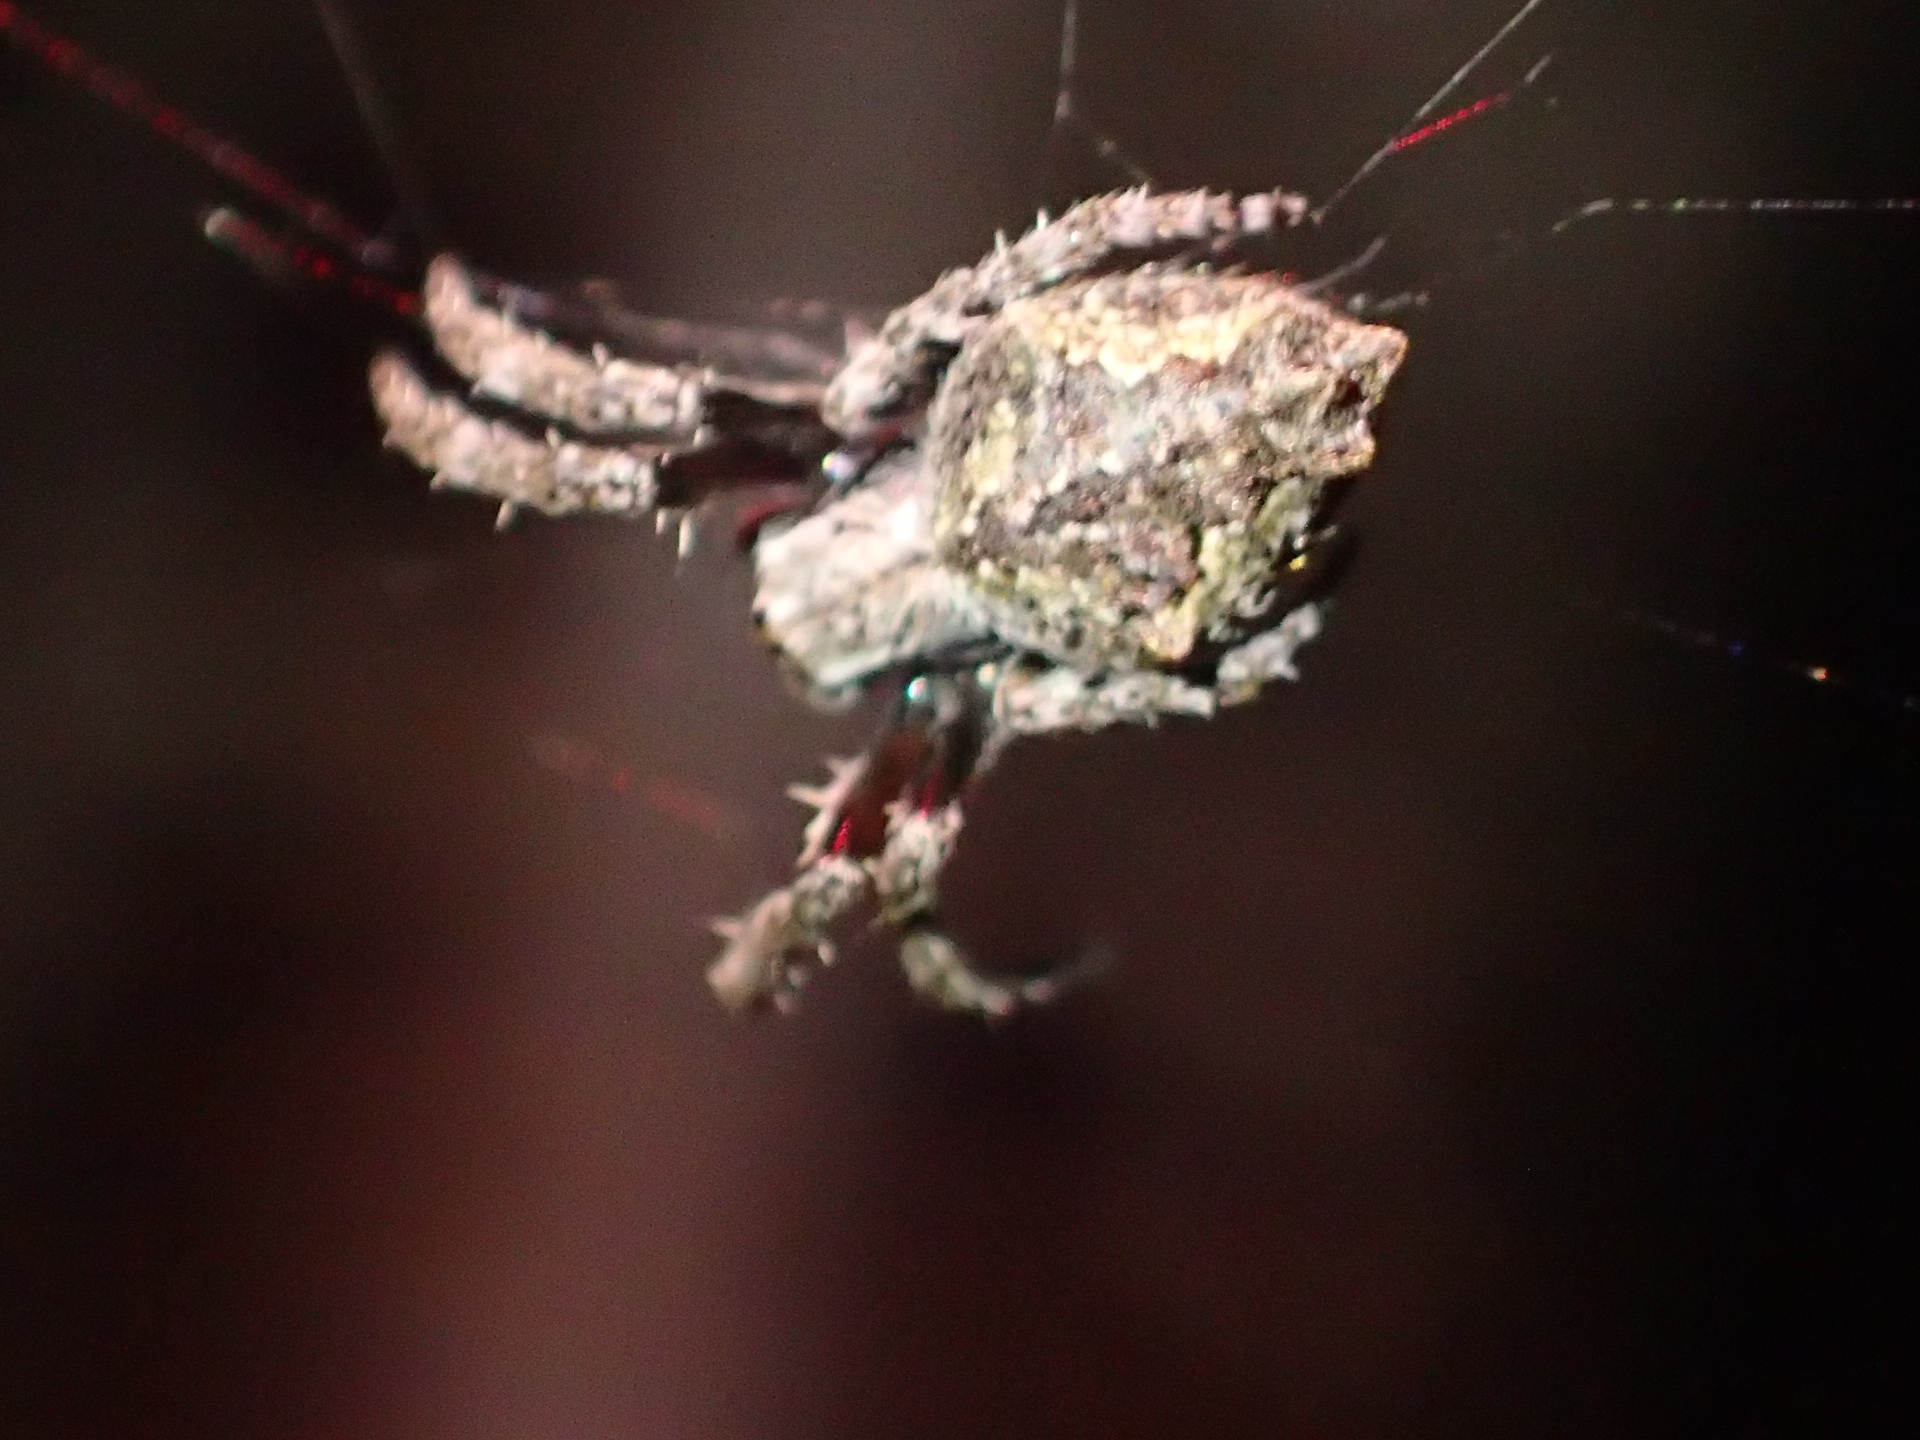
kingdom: Animalia
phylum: Arthropoda
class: Arachnida
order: Araneae
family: Araneidae
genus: Eriophora
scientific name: Eriophora pustulosa
